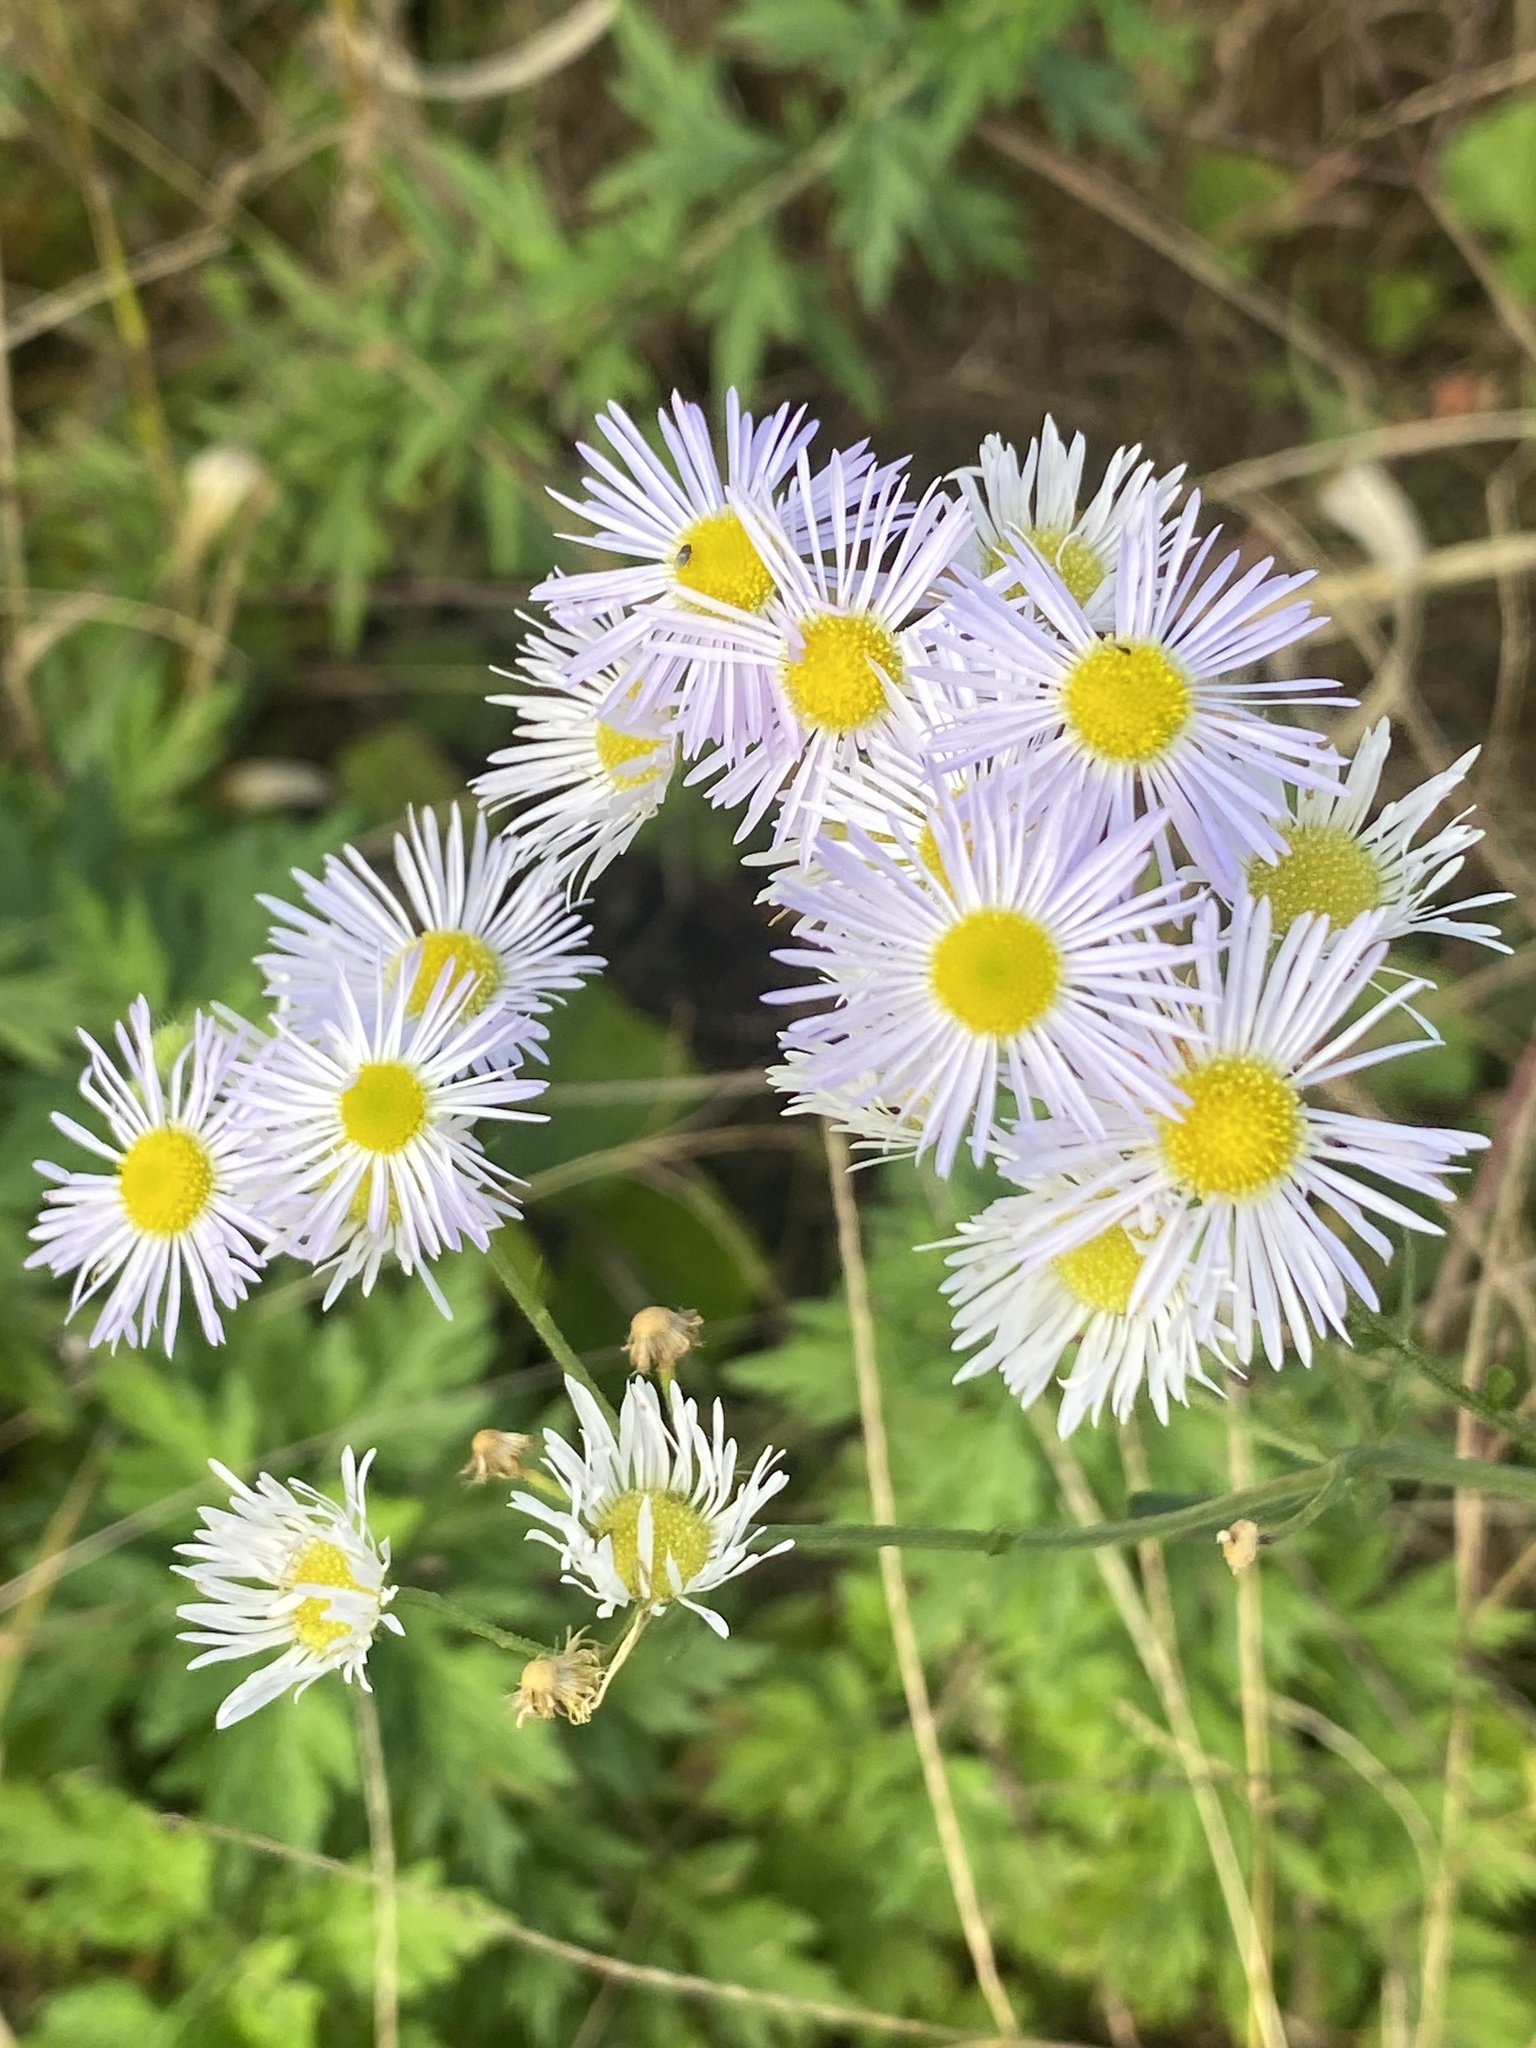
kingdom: Plantae
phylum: Tracheophyta
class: Magnoliopsida
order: Asterales
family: Asteraceae
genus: Erigeron
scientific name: Erigeron strigosus
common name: Common eastern fleabane
